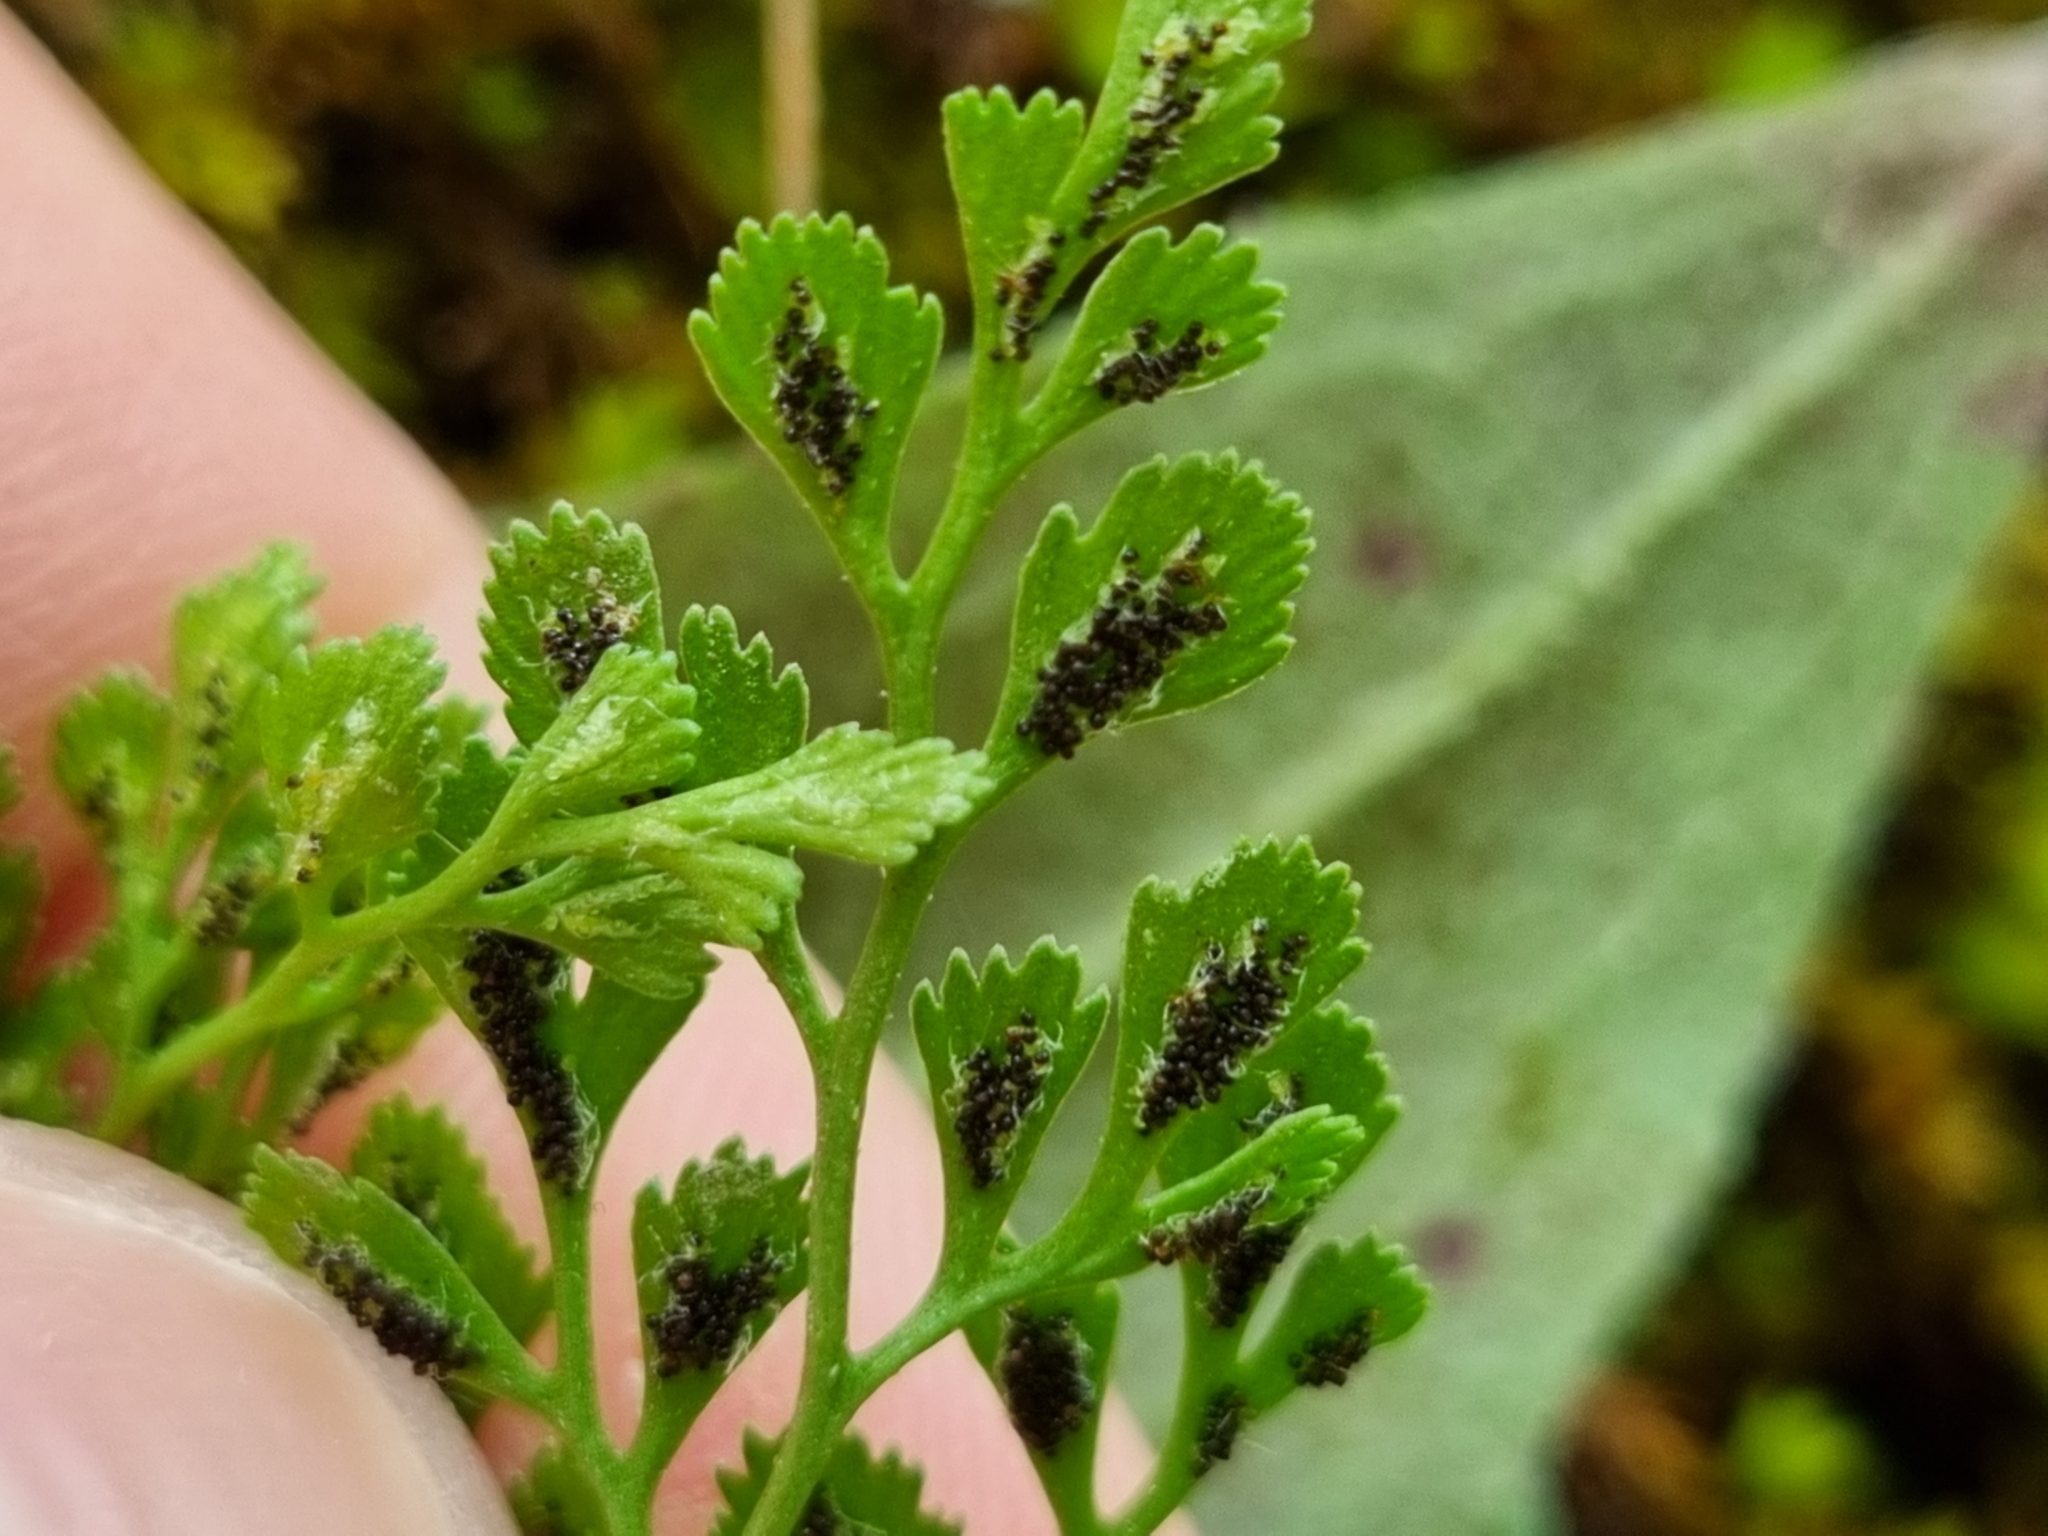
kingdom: Plantae
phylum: Tracheophyta
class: Polypodiopsida
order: Polypodiales
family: Aspleniaceae
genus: Asplenium
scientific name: Asplenium ruta-muraria
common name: Wall-rue
